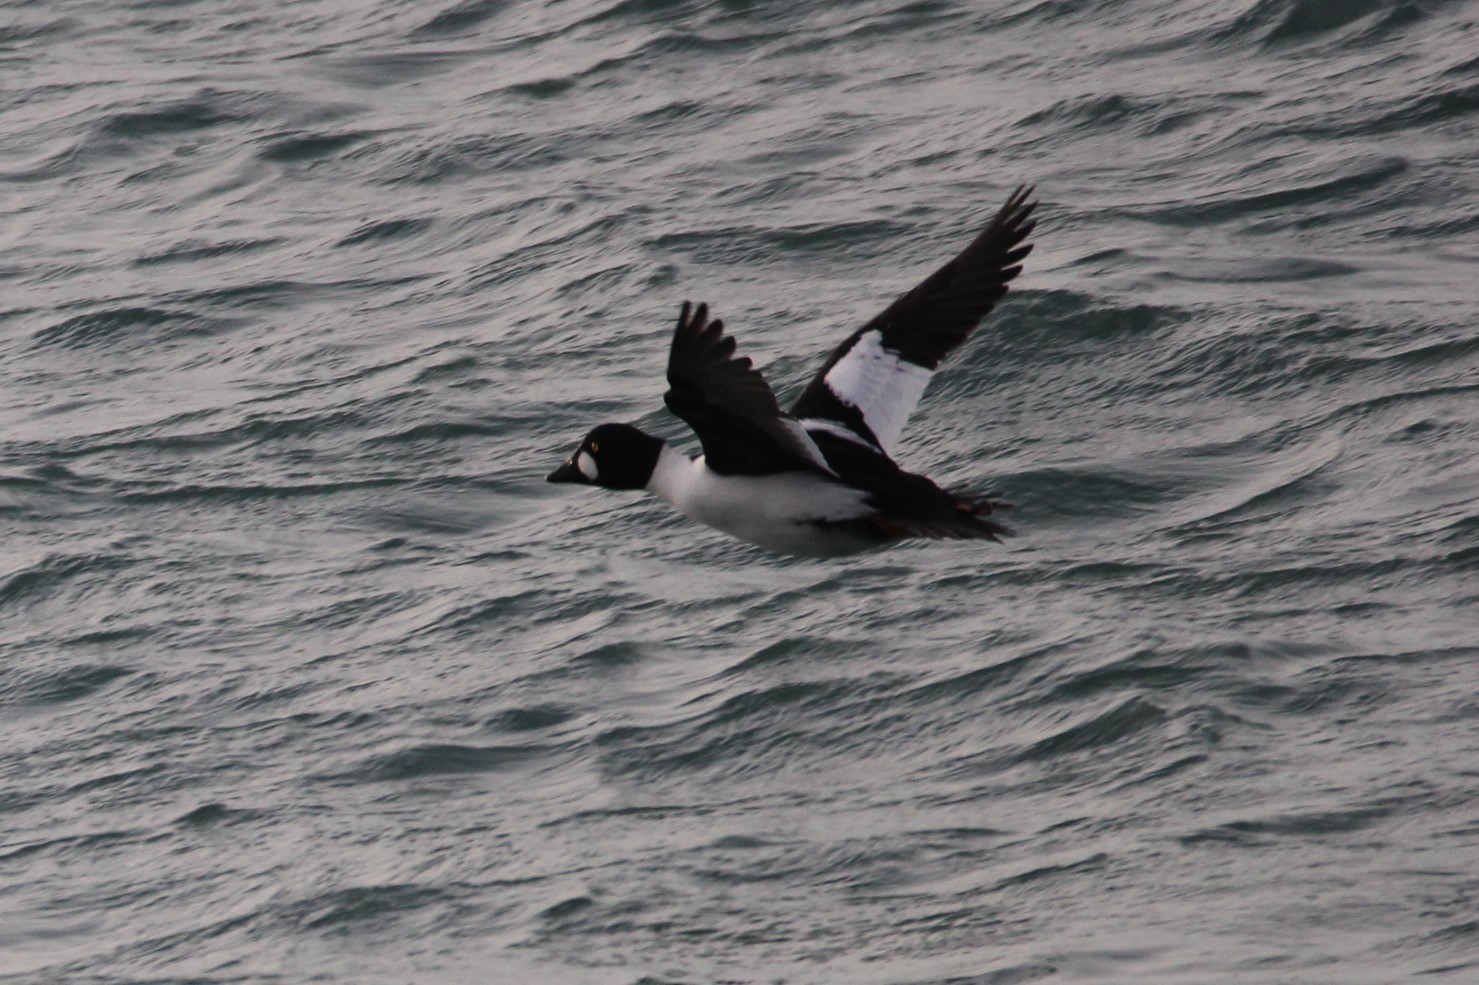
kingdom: Animalia
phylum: Chordata
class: Aves
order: Anseriformes
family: Anatidae
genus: Bucephala
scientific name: Bucephala clangula
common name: Common goldeneye
